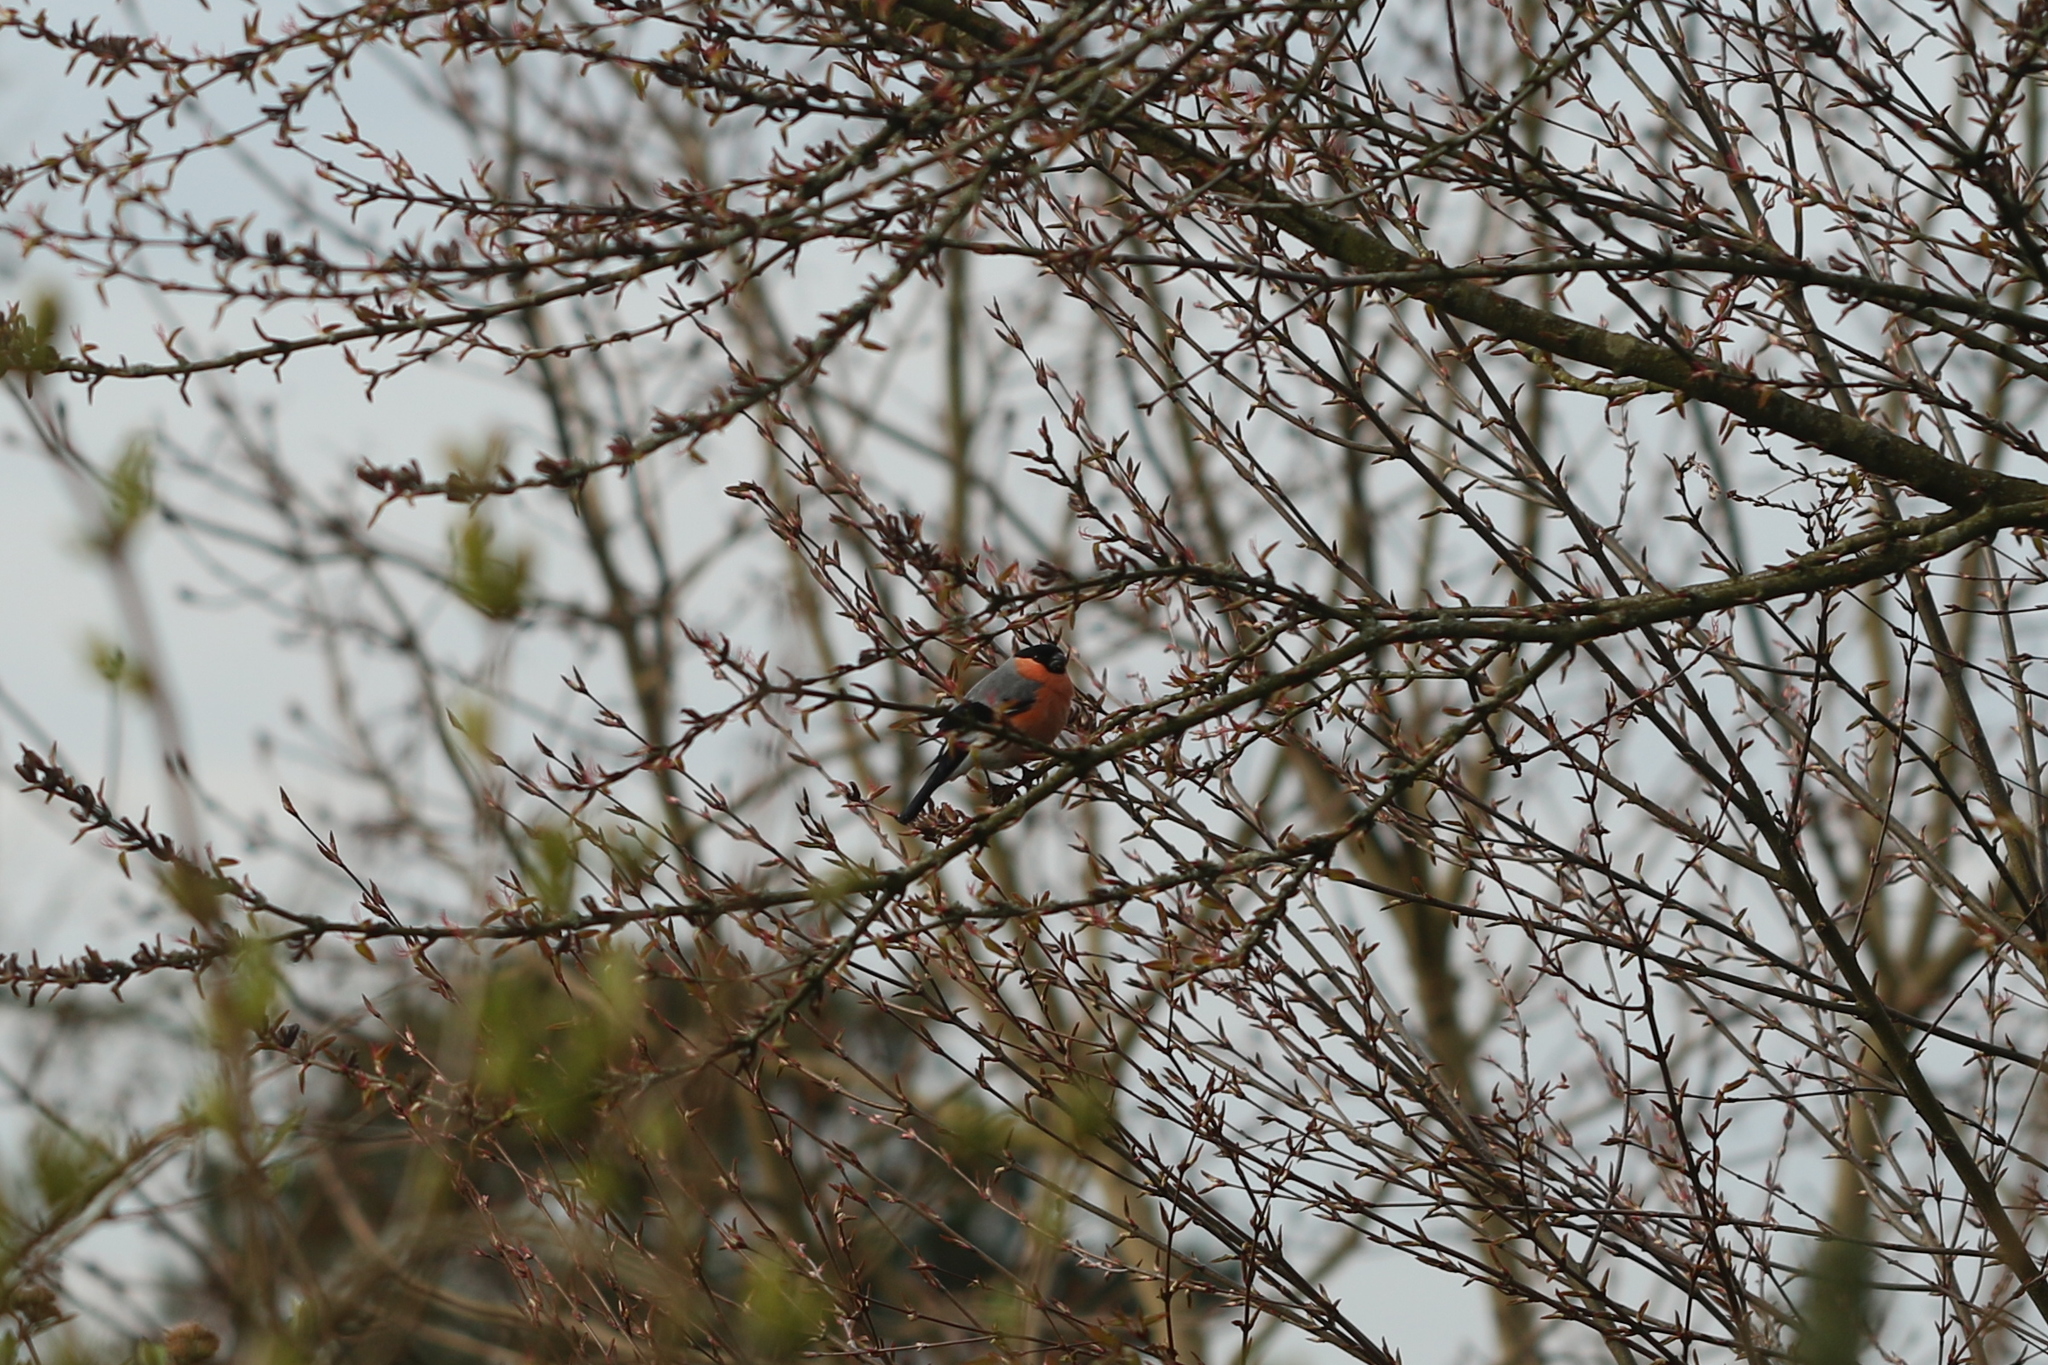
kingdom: Animalia
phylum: Chordata
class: Aves
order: Passeriformes
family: Fringillidae
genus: Pyrrhula
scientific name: Pyrrhula pyrrhula
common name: Eurasian bullfinch
